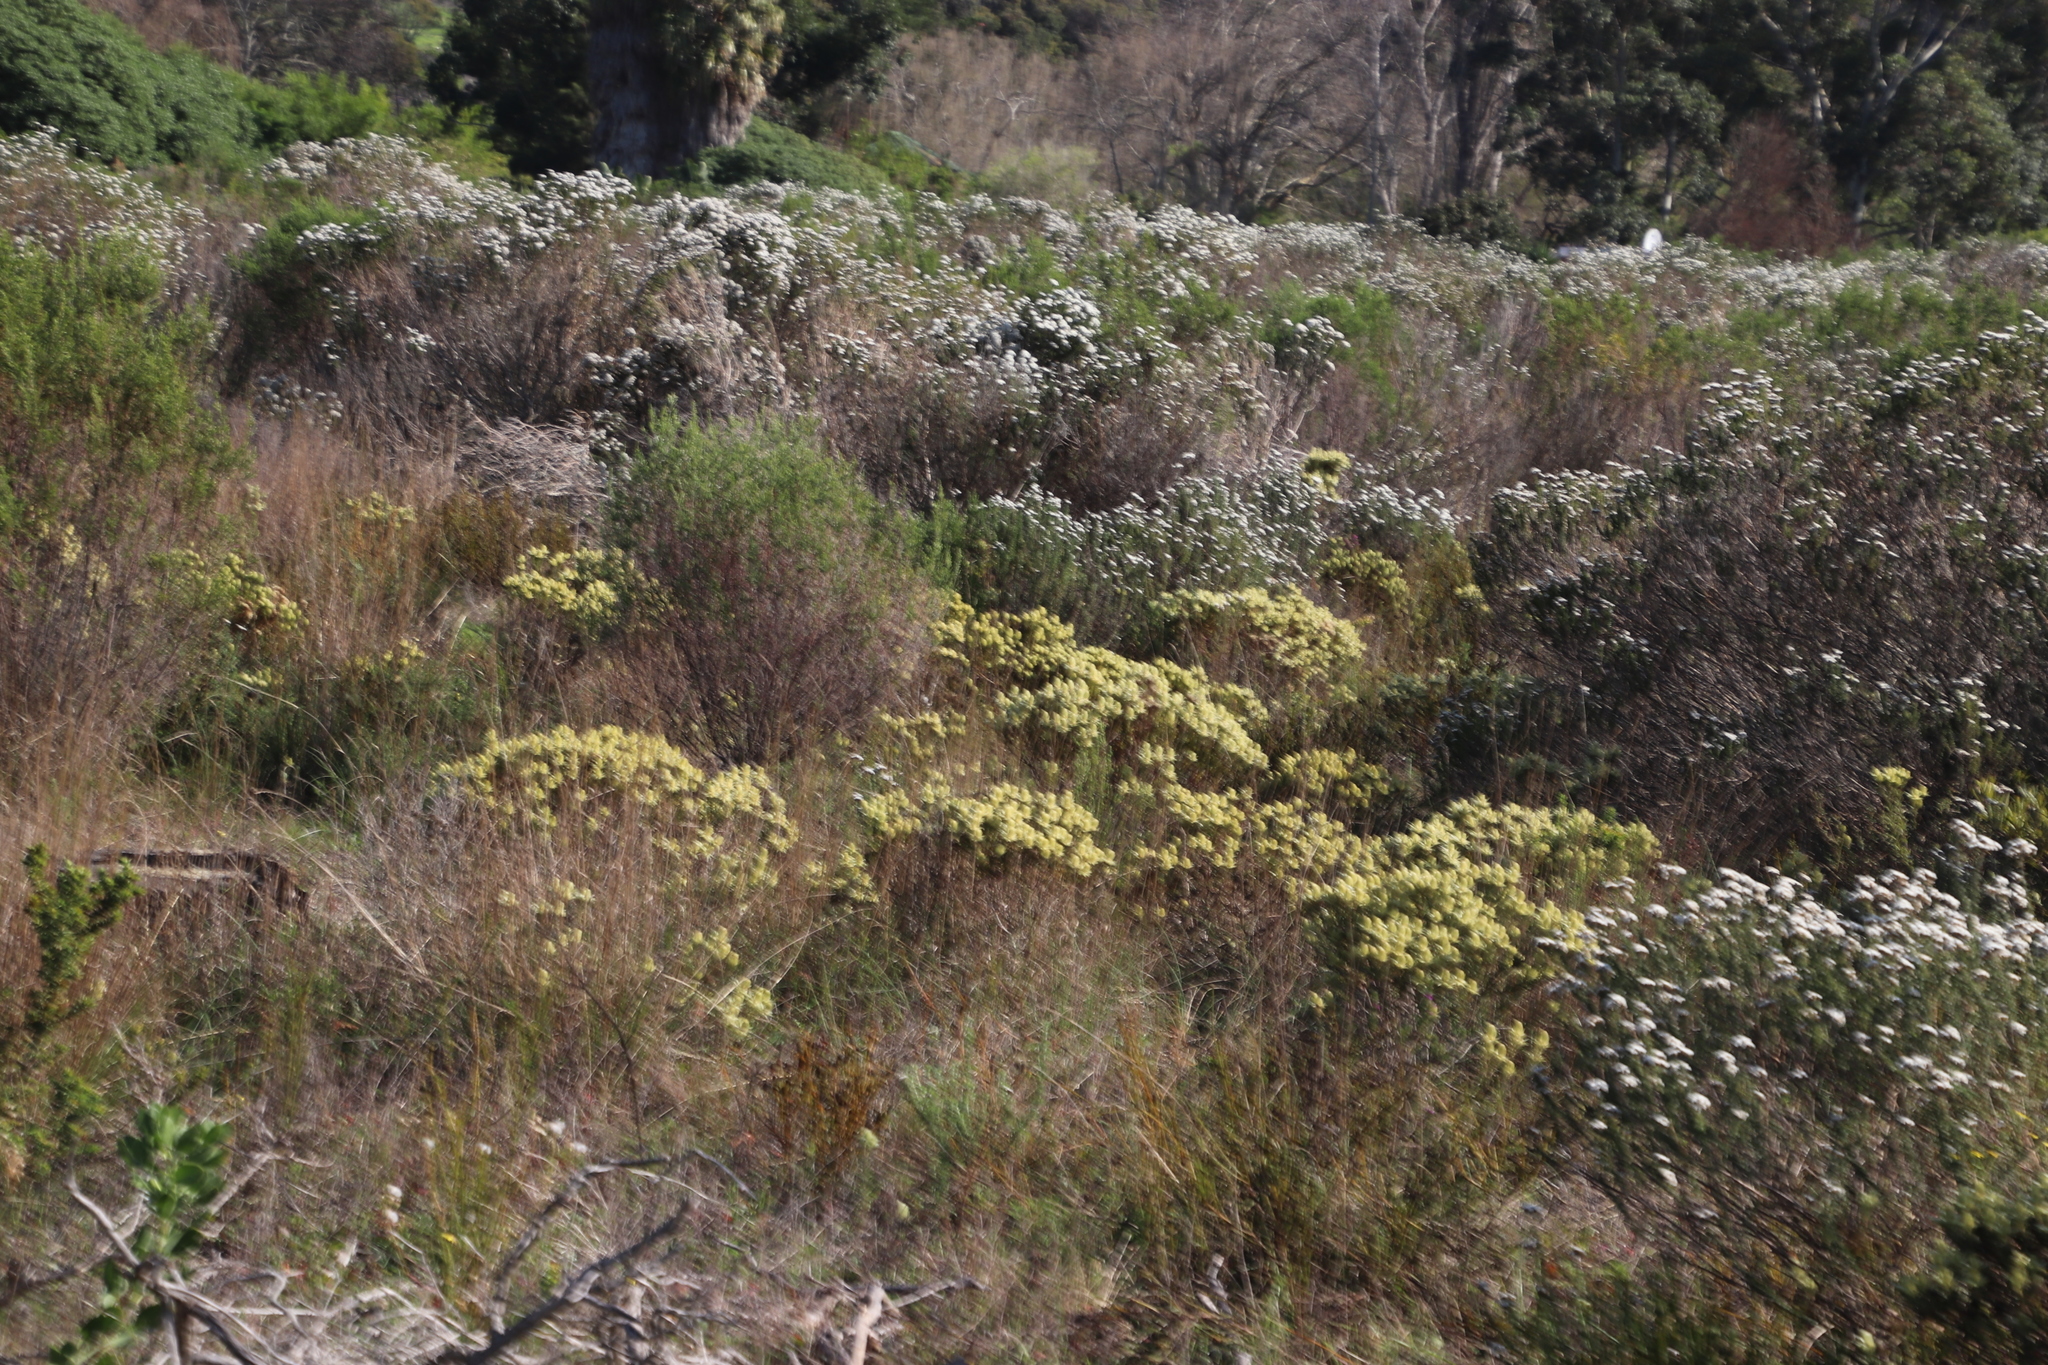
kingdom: Plantae
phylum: Tracheophyta
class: Magnoliopsida
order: Rosales
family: Rhamnaceae
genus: Phylica
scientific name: Phylica pubescens
